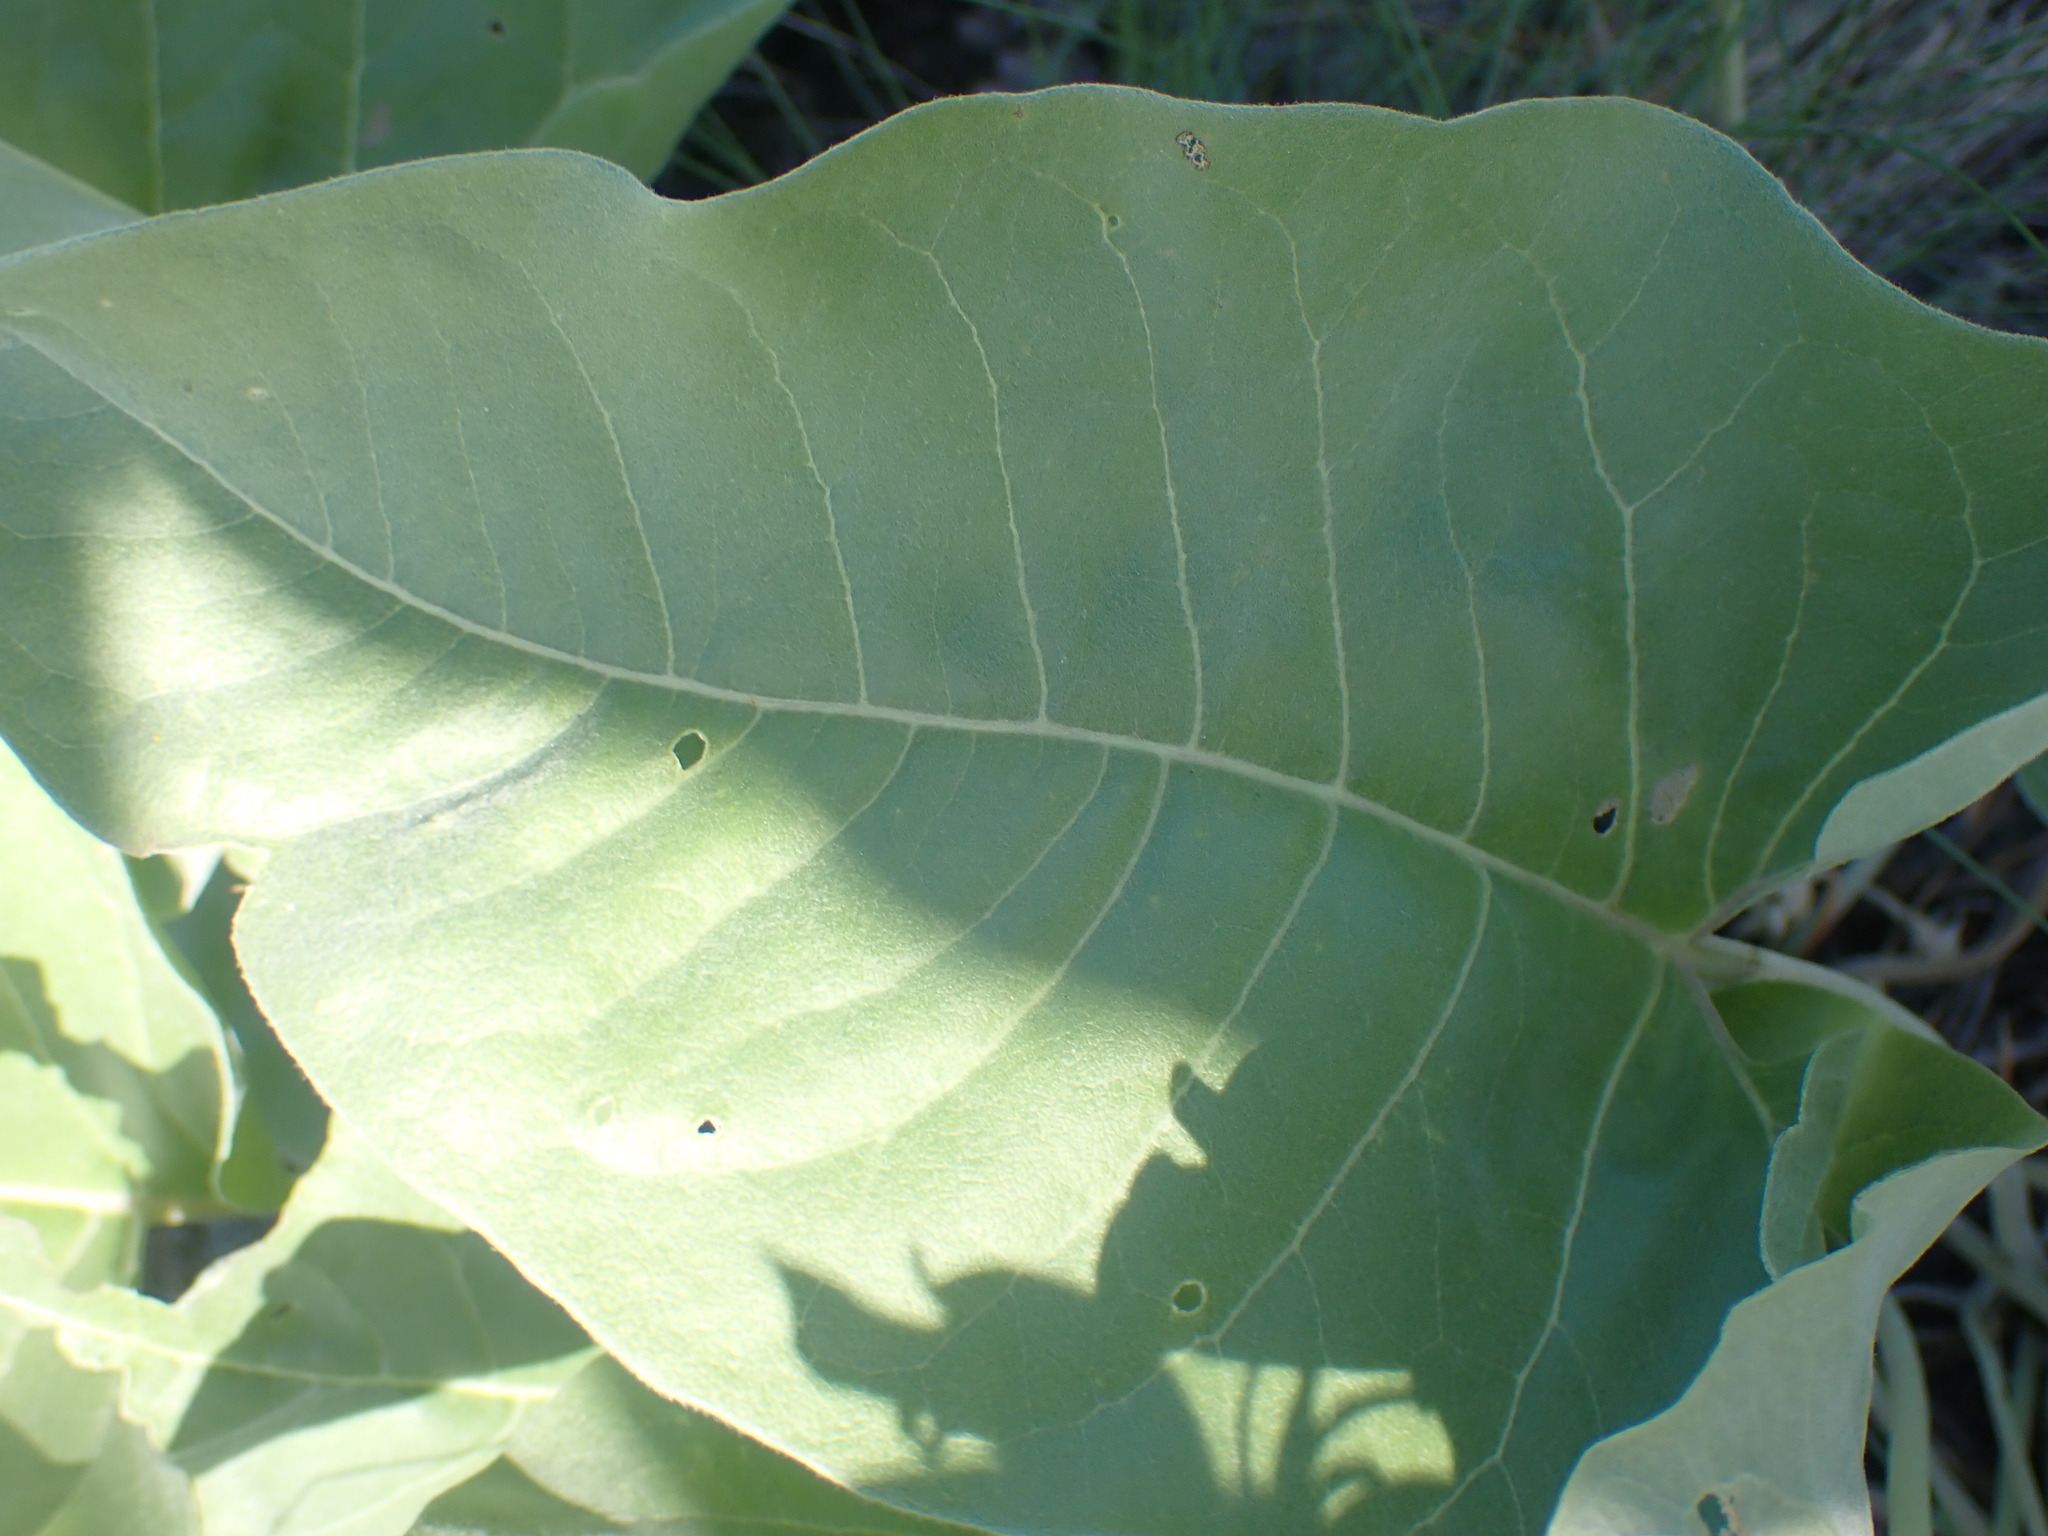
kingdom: Plantae
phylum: Tracheophyta
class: Magnoliopsida
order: Asterales
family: Asteraceae
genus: Wyethia
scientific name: Wyethia sagittata
